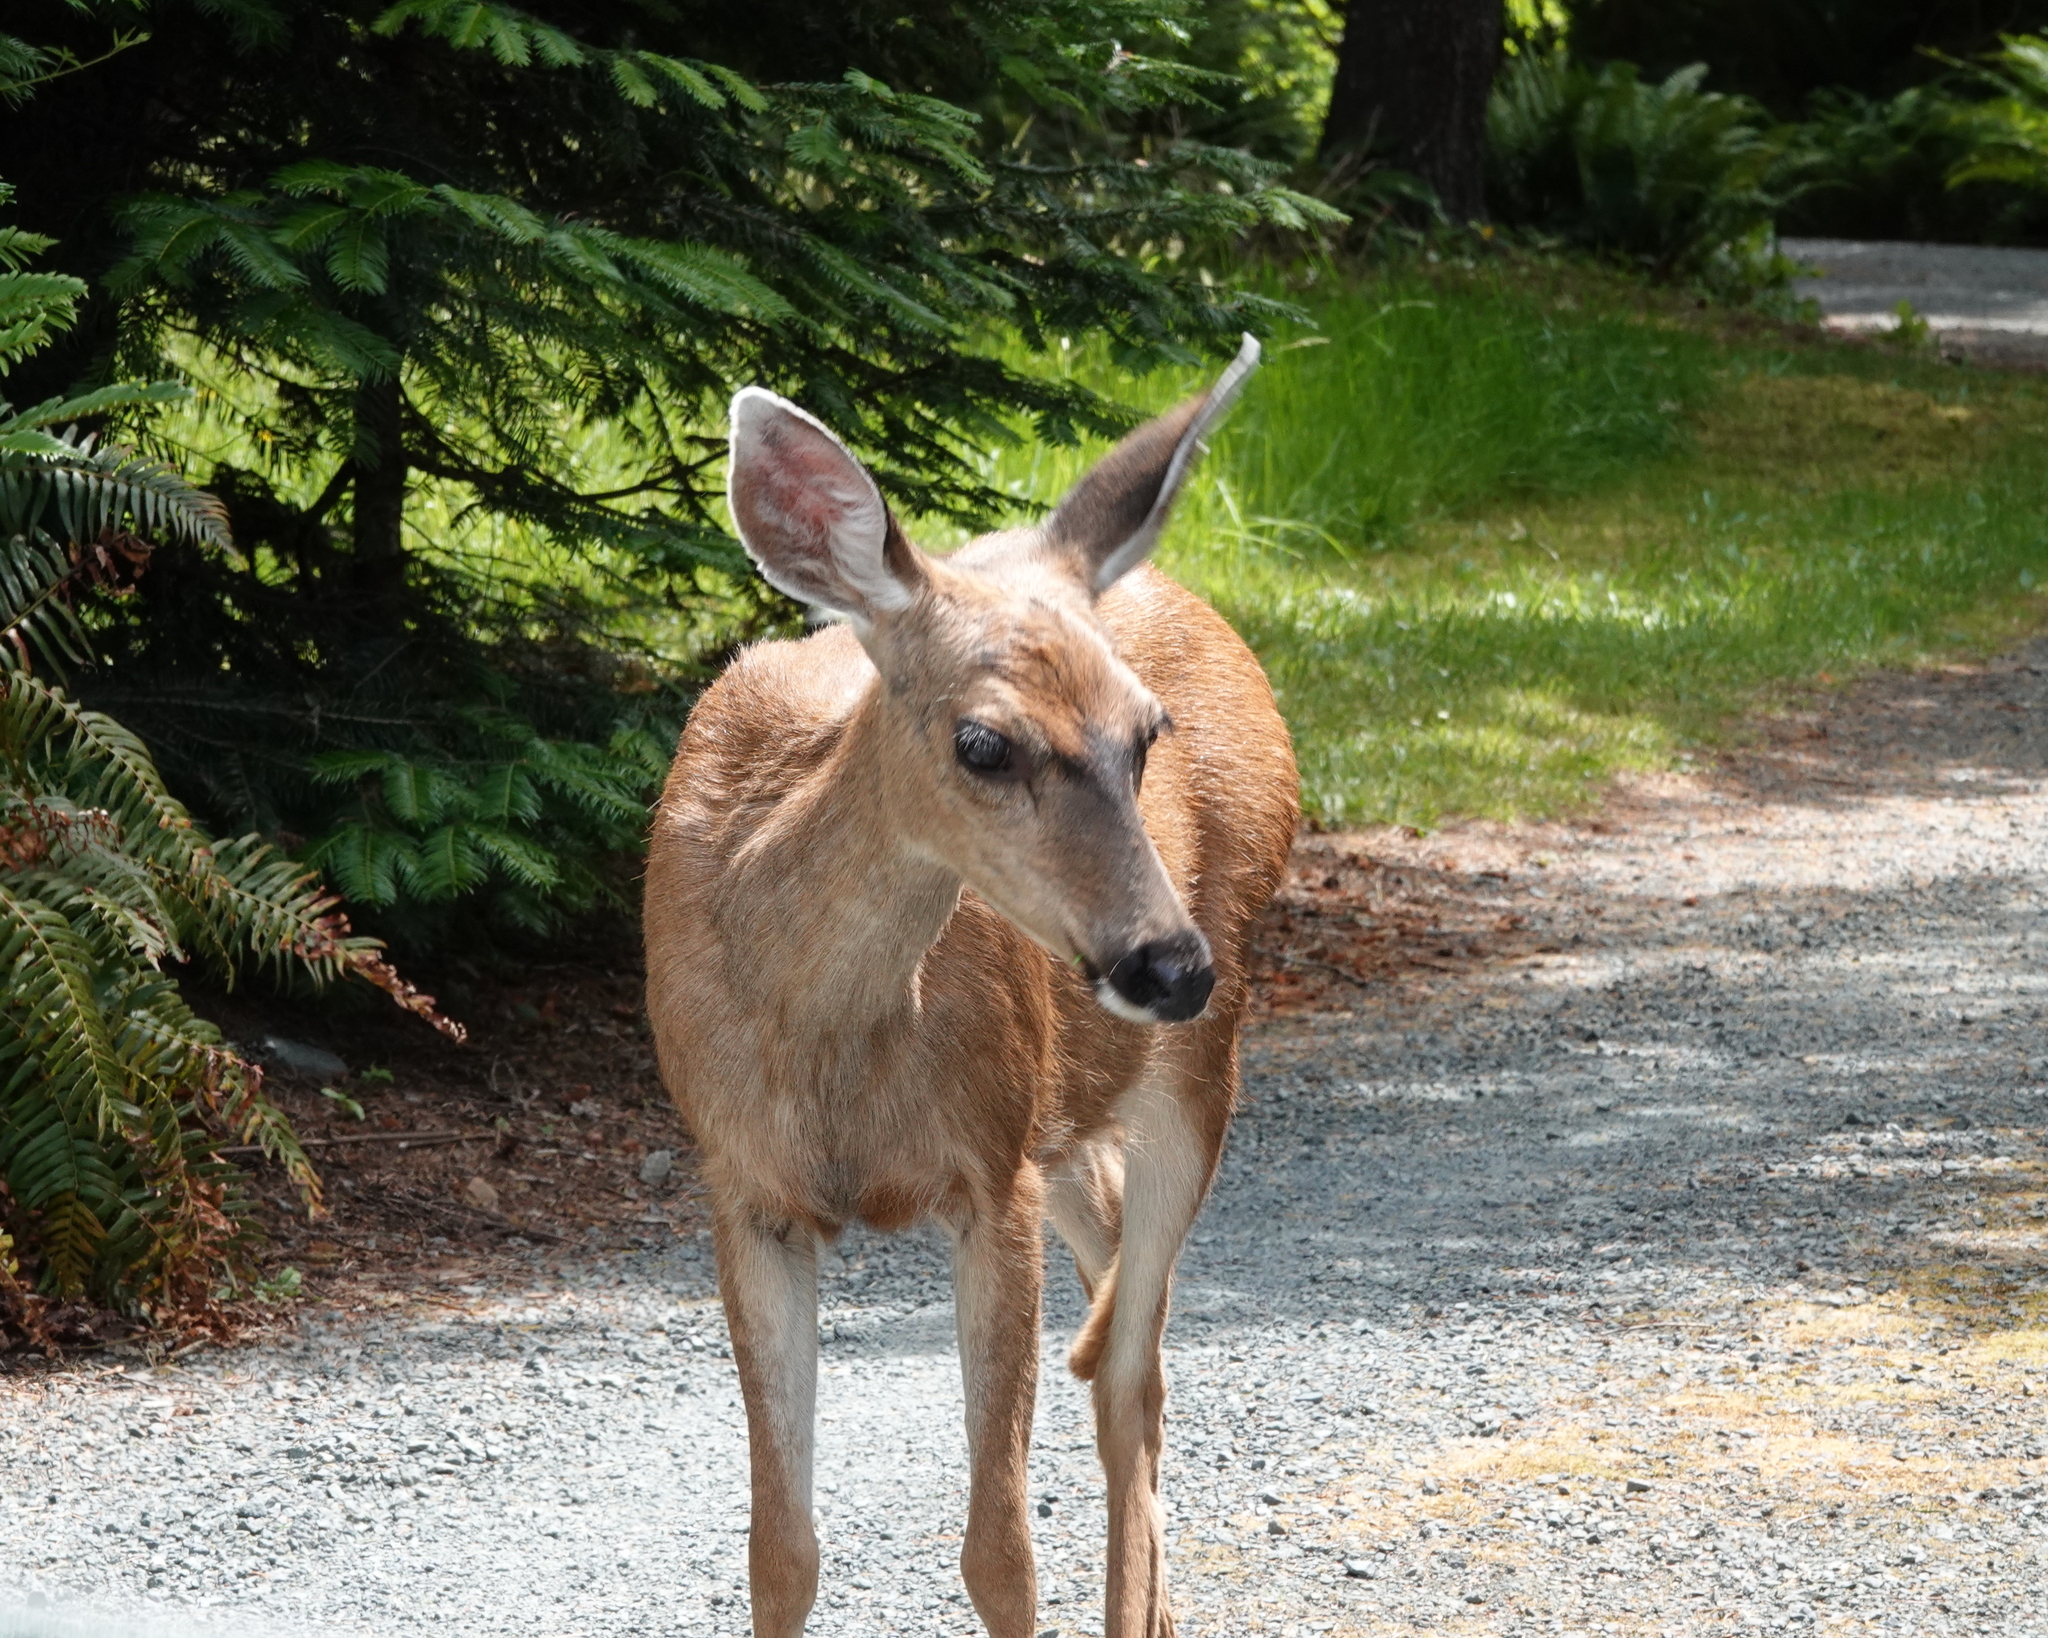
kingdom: Animalia
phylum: Chordata
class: Mammalia
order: Artiodactyla
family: Cervidae
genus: Odocoileus
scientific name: Odocoileus hemionus
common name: Mule deer
